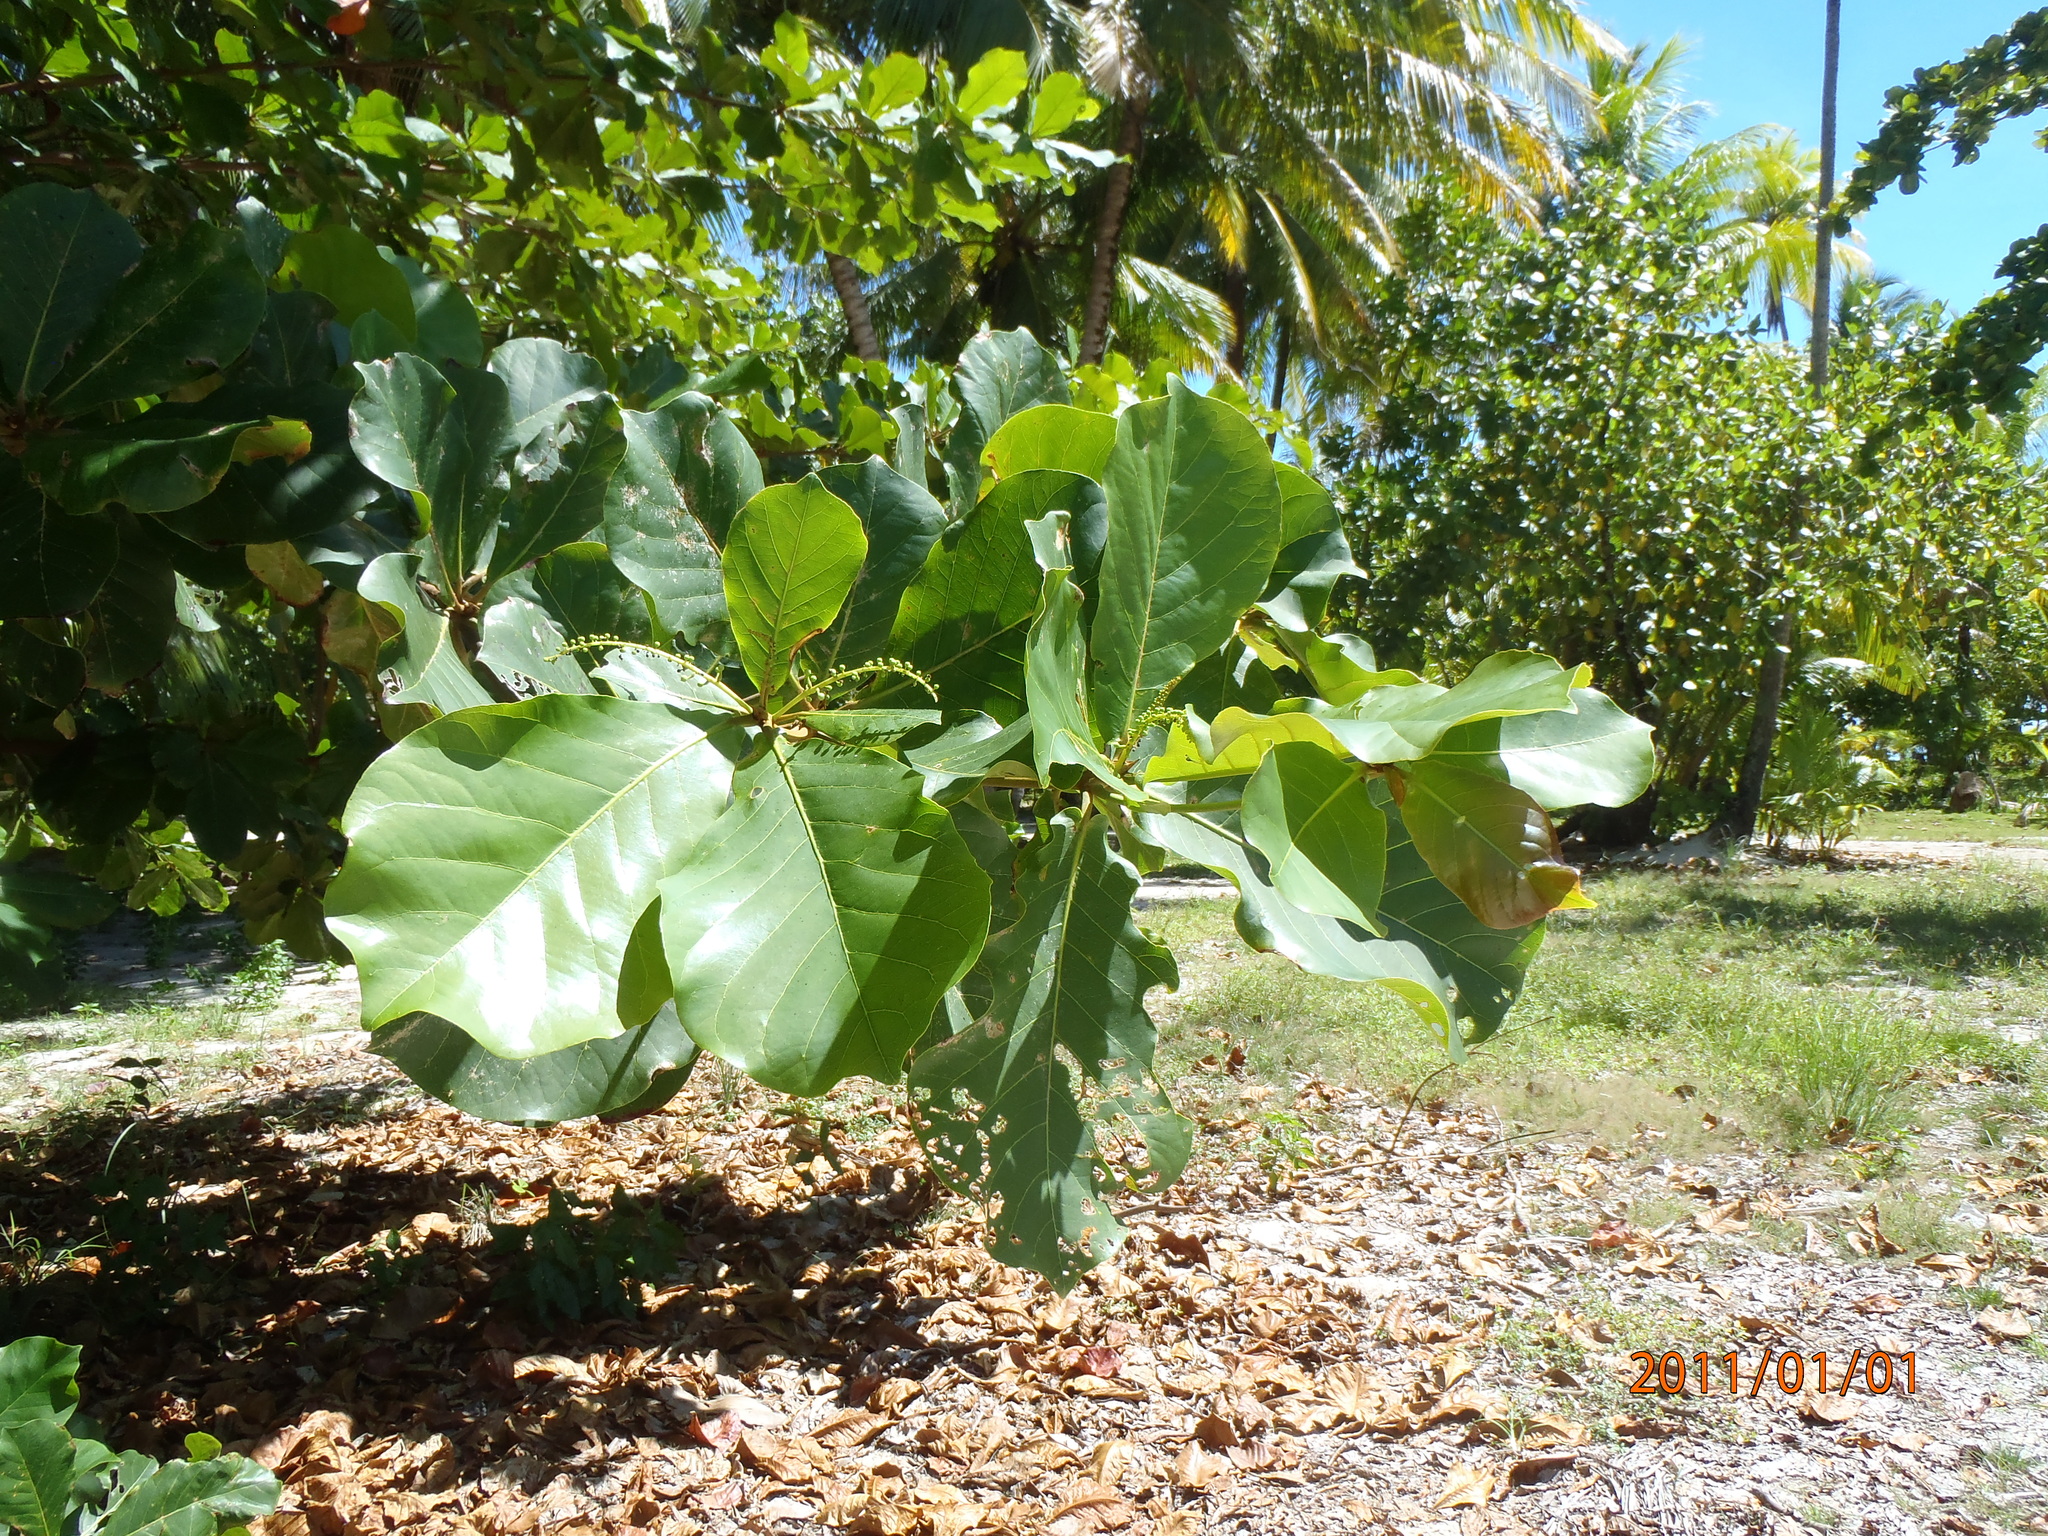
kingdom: Plantae
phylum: Tracheophyta
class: Magnoliopsida
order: Myrtales
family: Combretaceae
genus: Terminalia
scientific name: Terminalia catappa
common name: Tropical almond
